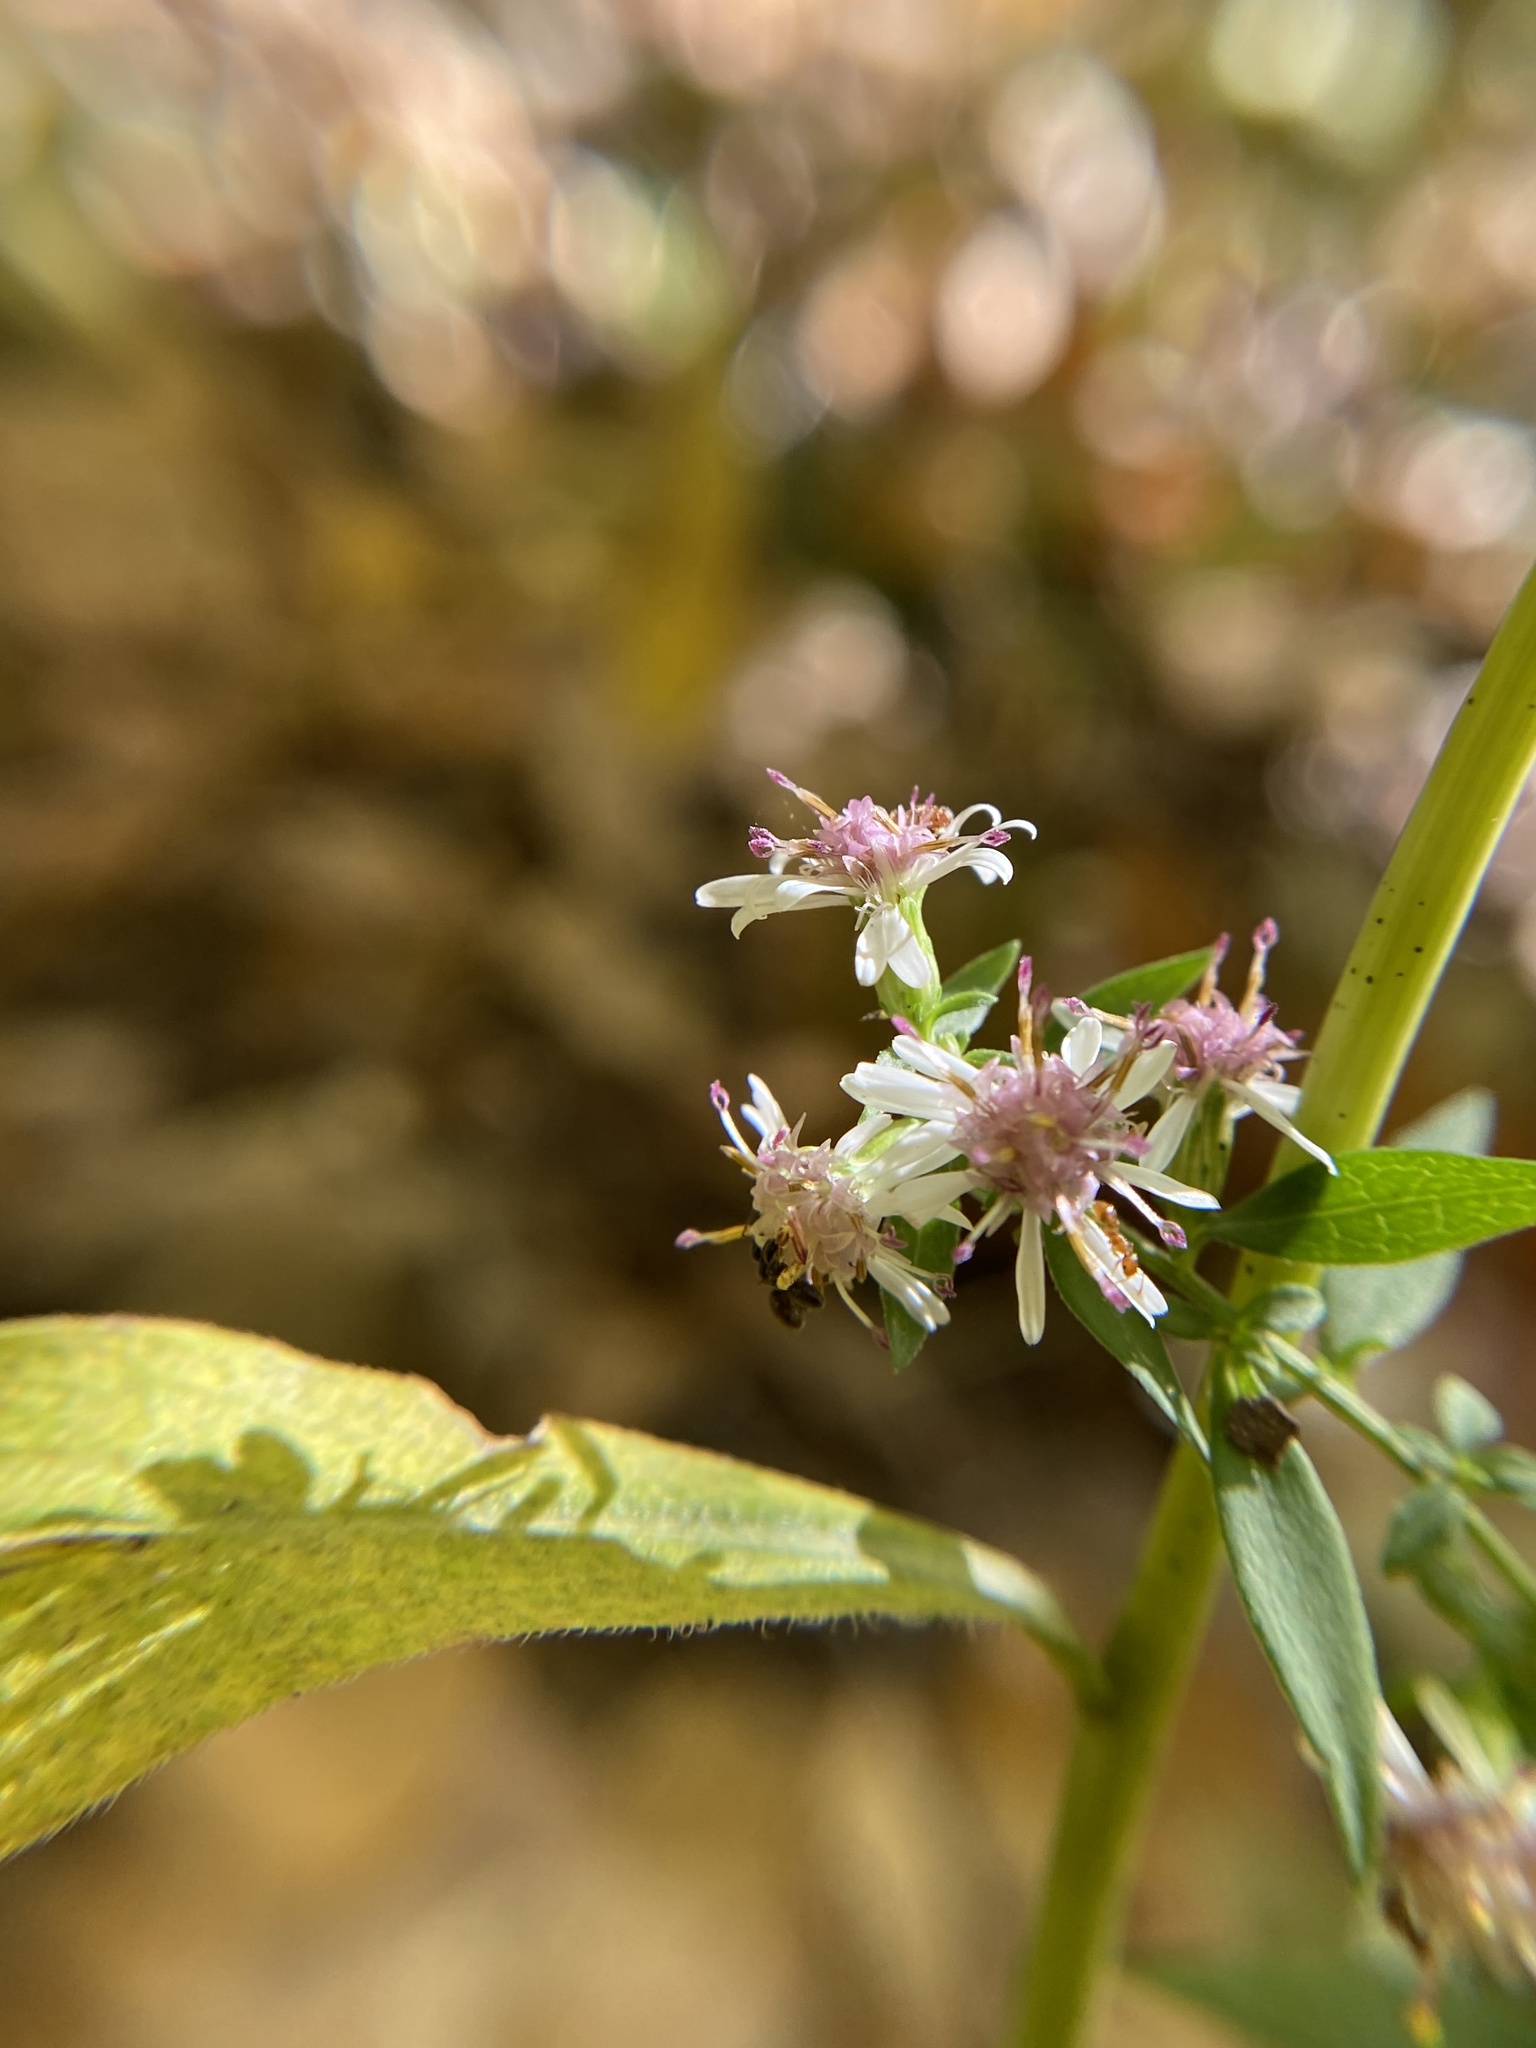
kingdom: Plantae
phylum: Tracheophyta
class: Magnoliopsida
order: Asterales
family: Asteraceae
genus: Symphyotrichum
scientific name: Symphyotrichum lateriflorum
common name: Calico aster
